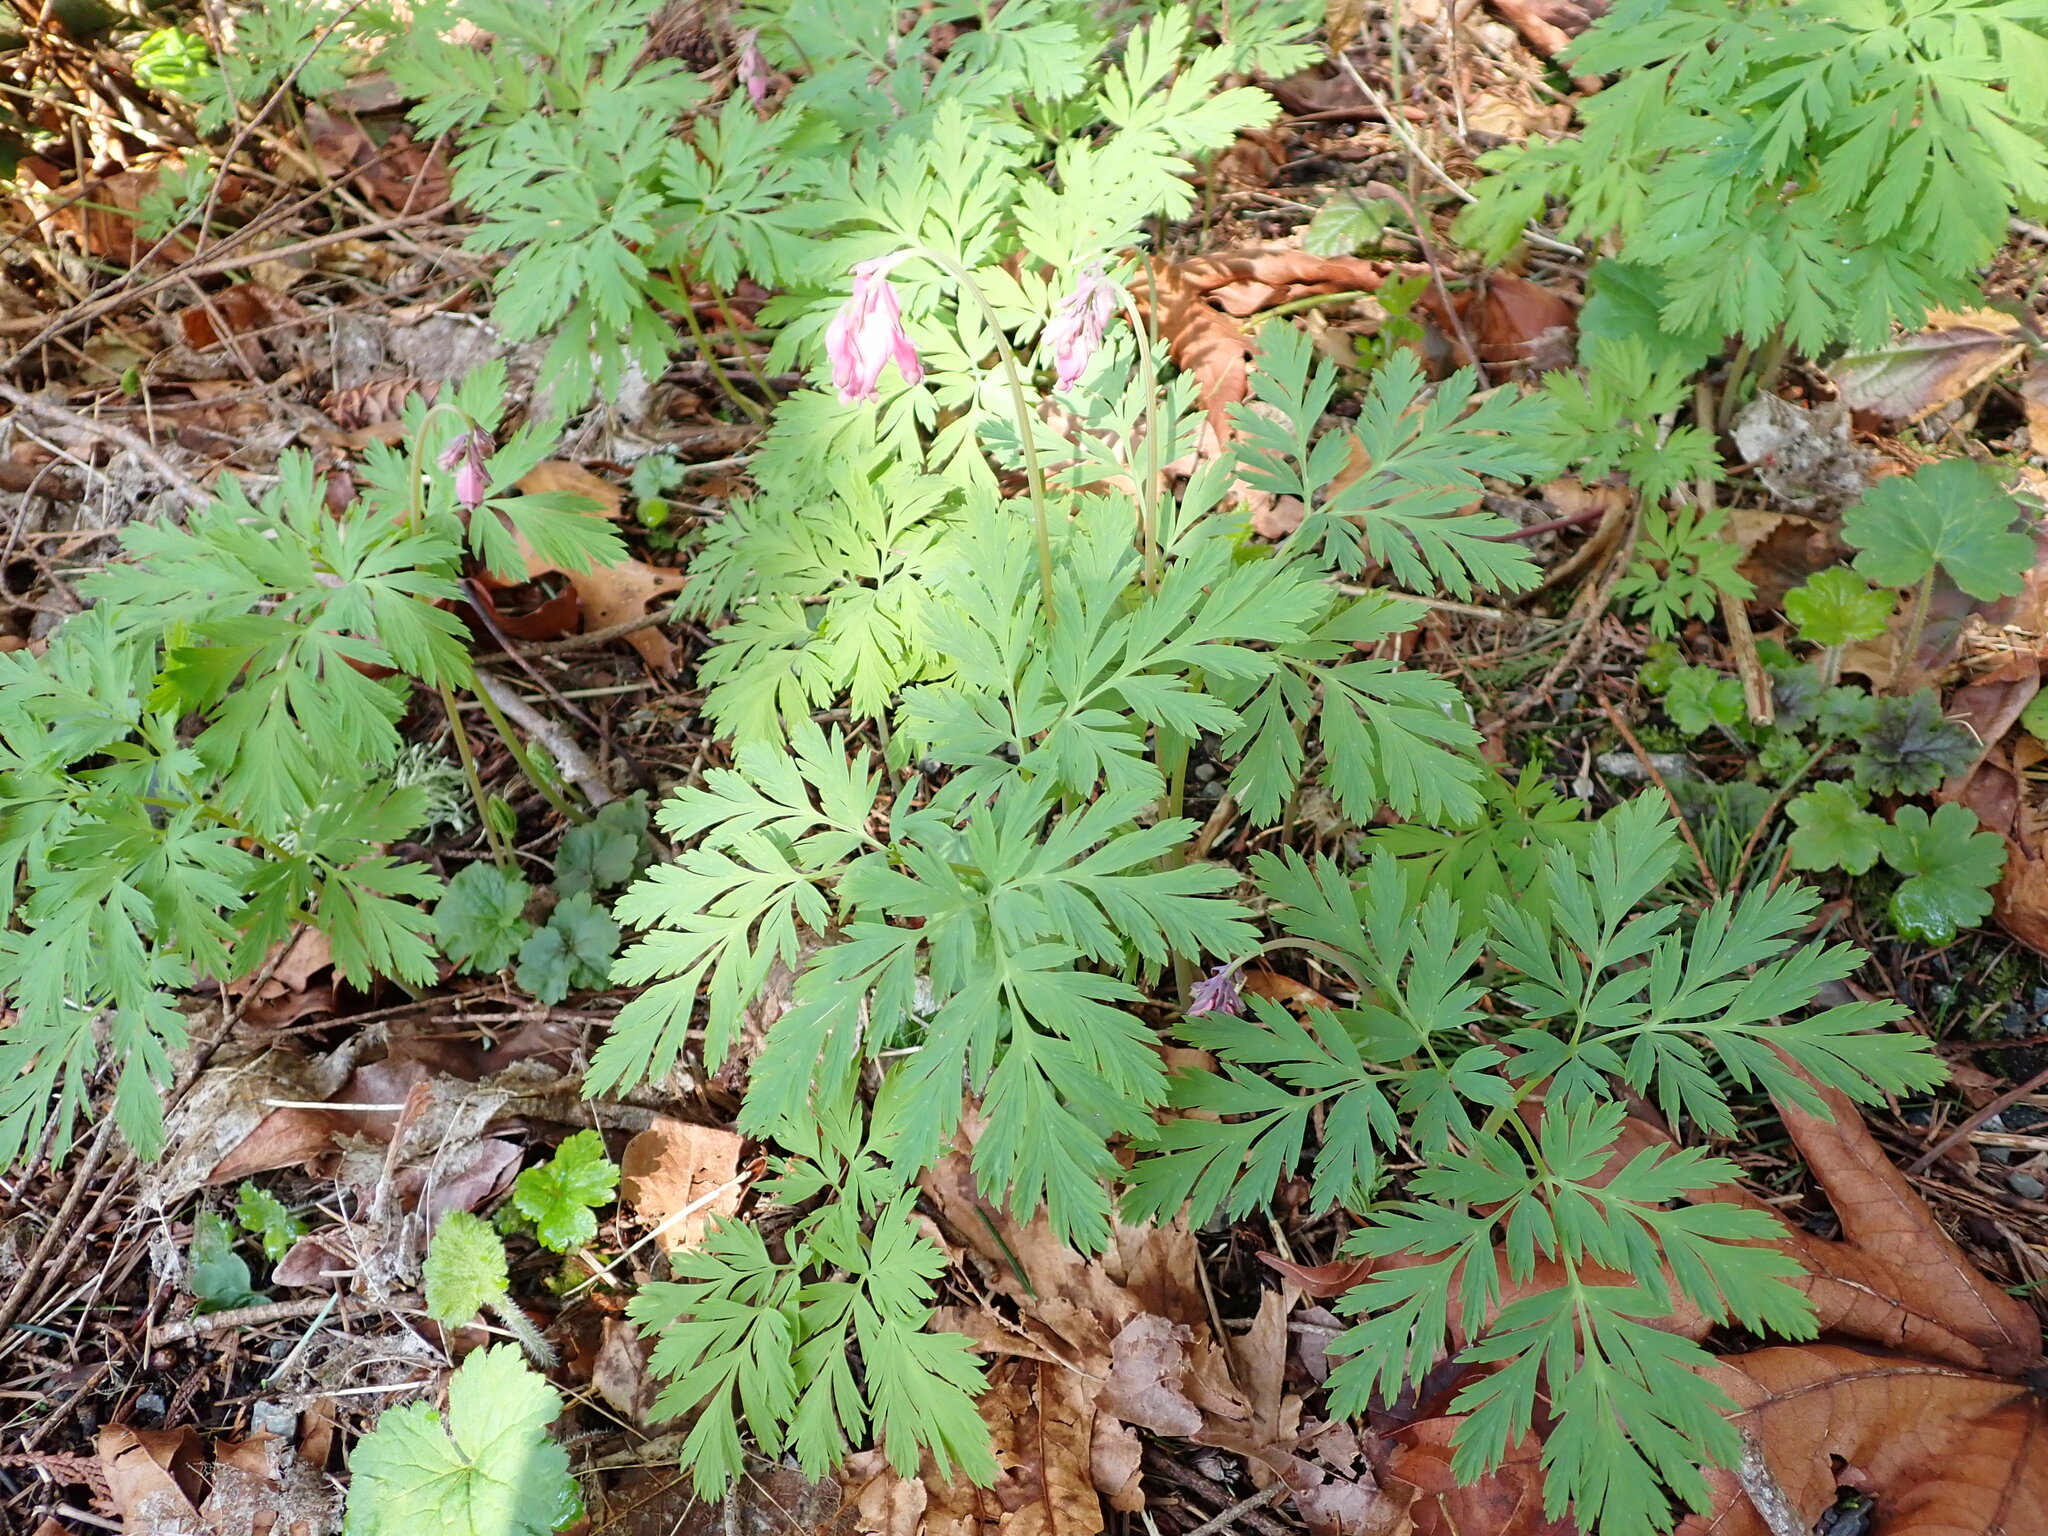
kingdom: Plantae
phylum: Tracheophyta
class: Magnoliopsida
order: Ranunculales
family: Papaveraceae
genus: Dicentra
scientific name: Dicentra formosa
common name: Bleeding-heart
